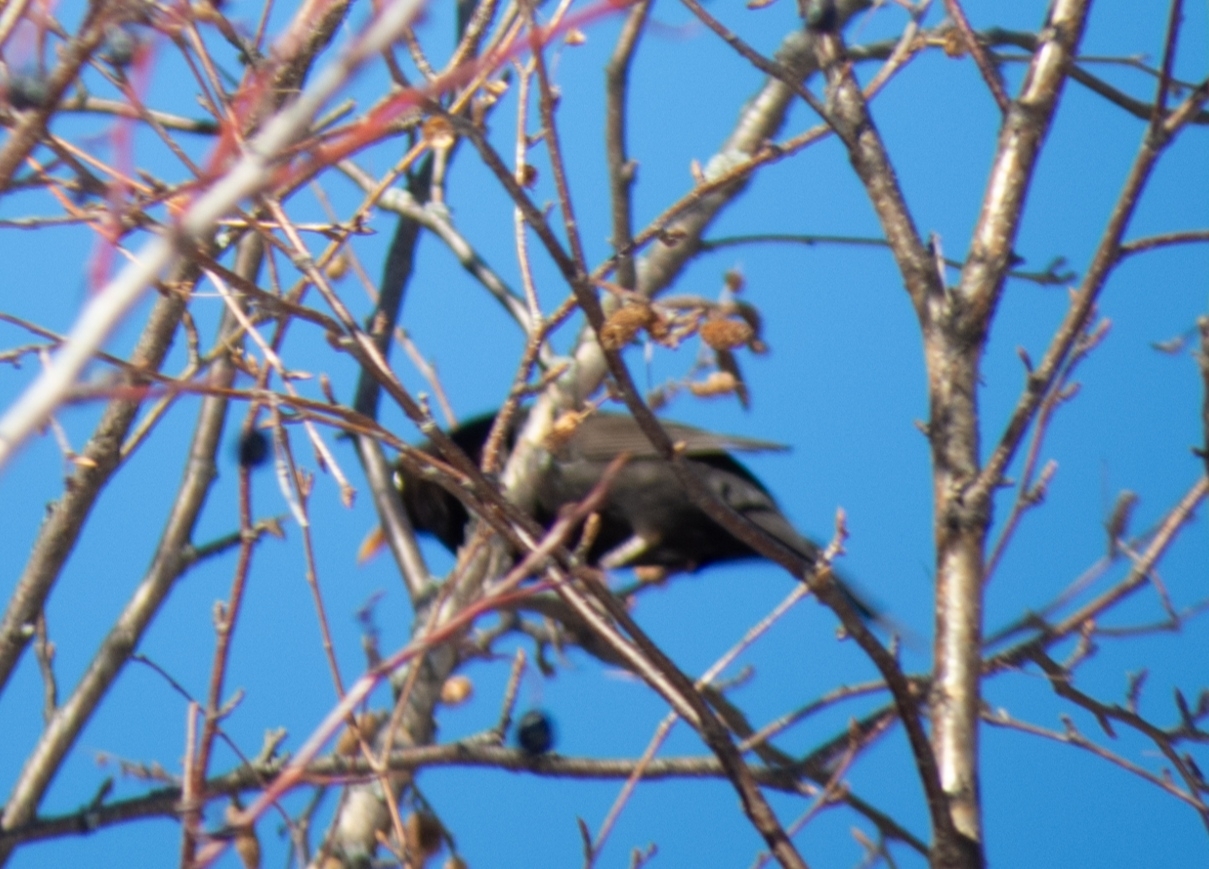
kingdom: Animalia
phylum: Chordata
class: Aves
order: Passeriformes
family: Turdidae
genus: Turdus
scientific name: Turdus merula
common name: Common blackbird
